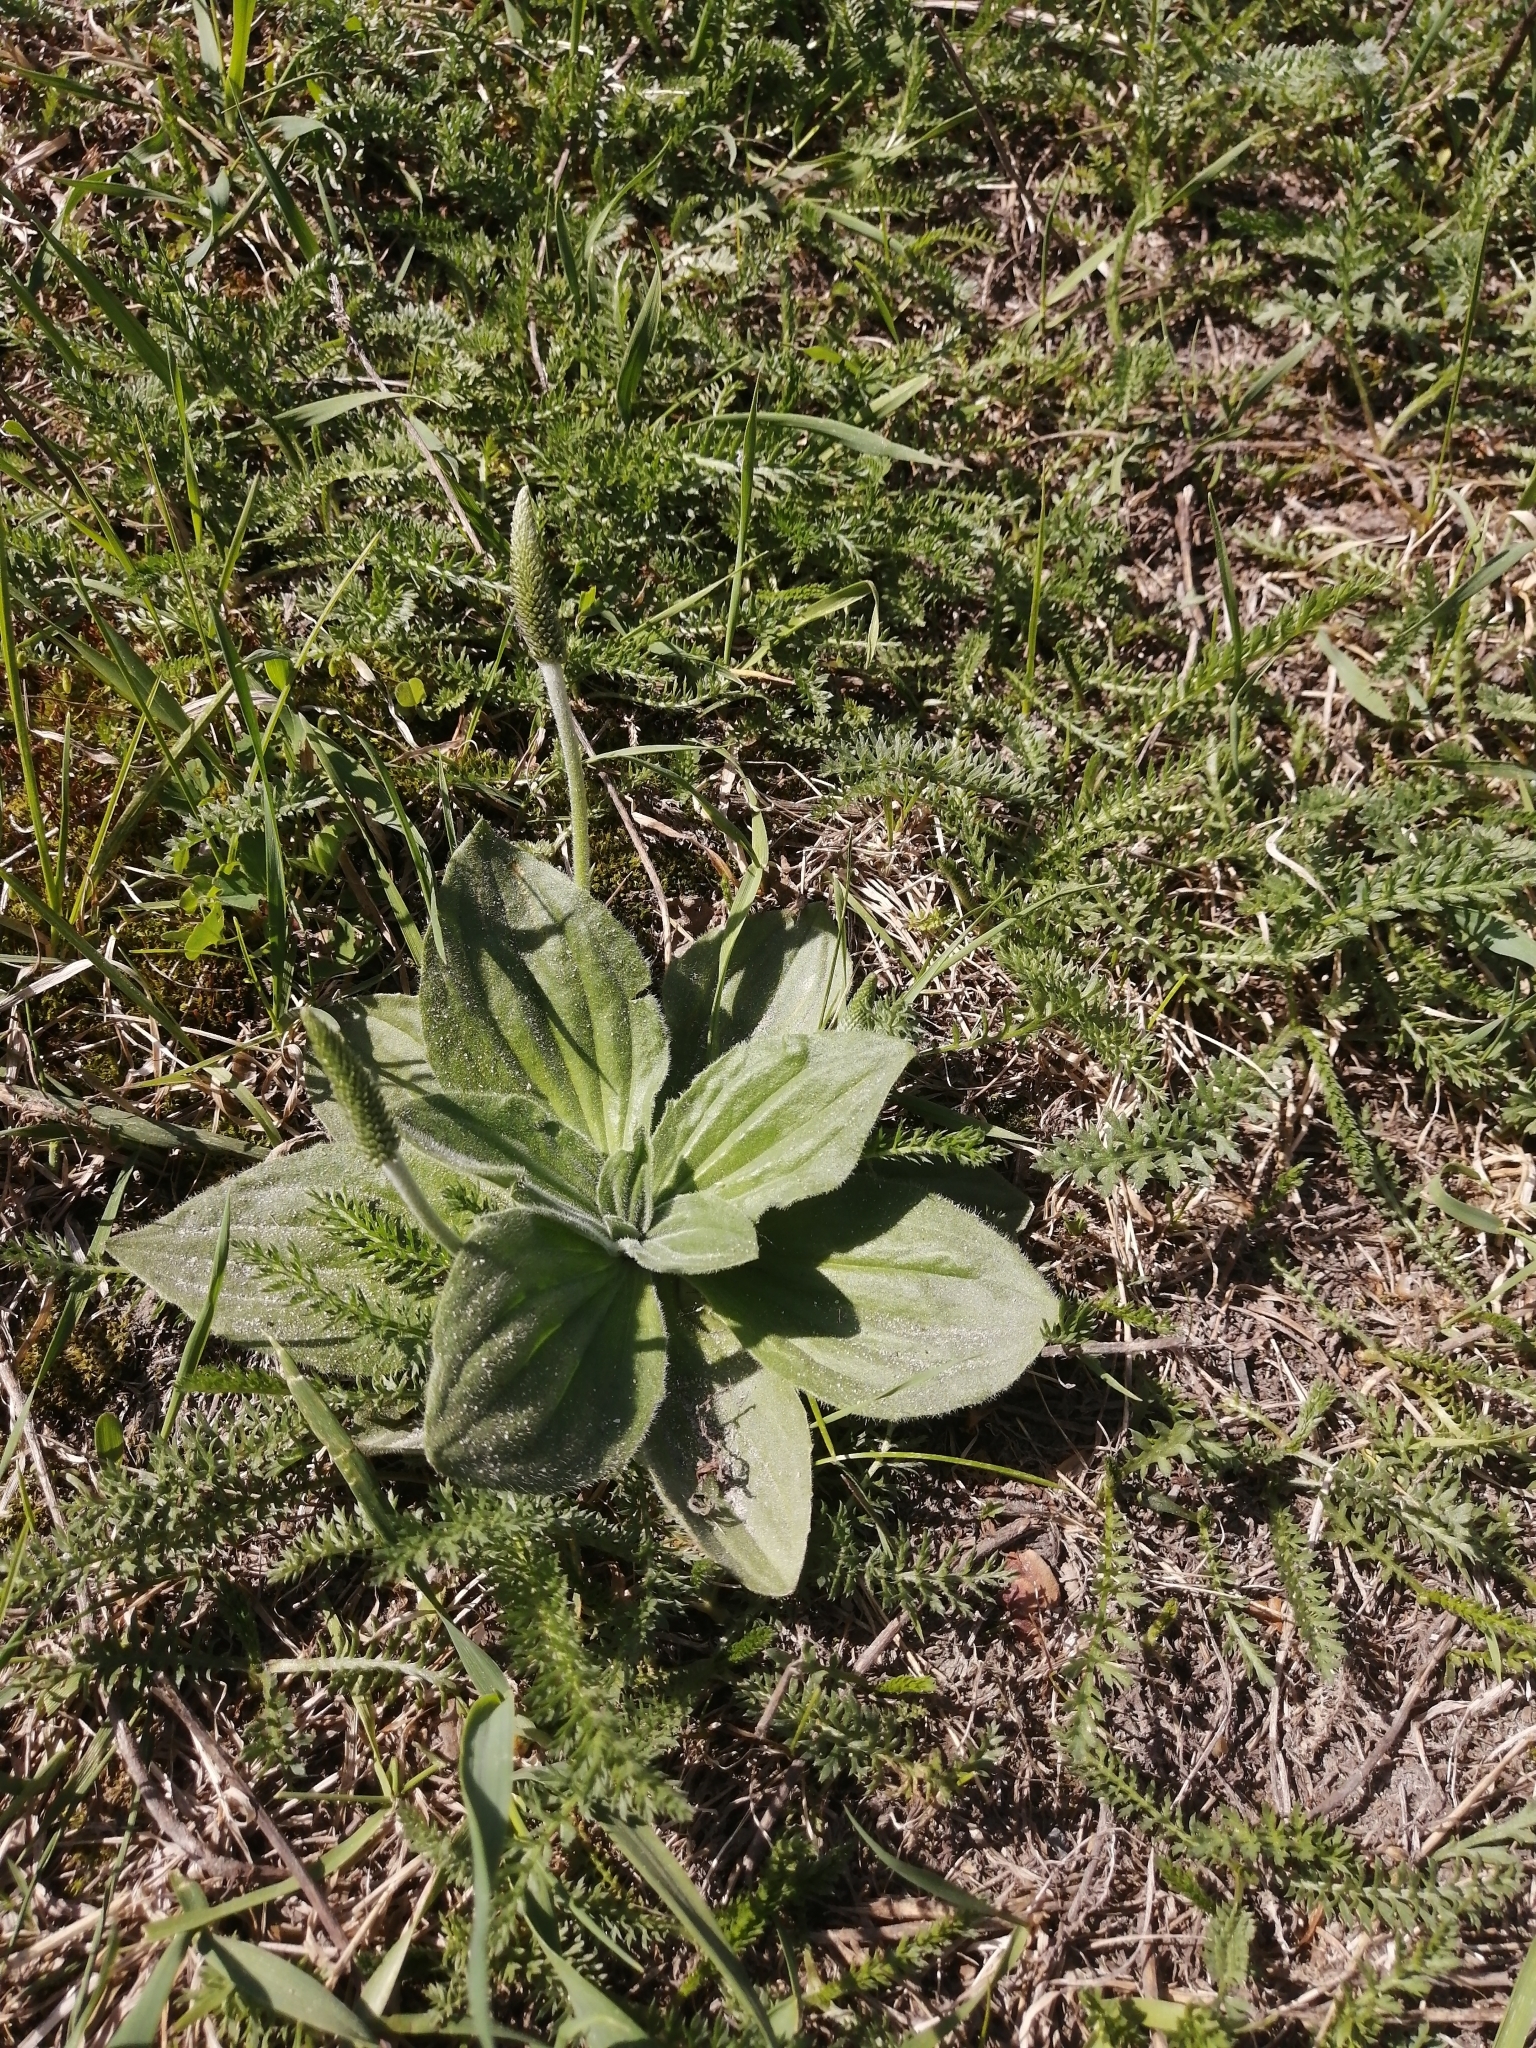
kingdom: Plantae
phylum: Tracheophyta
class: Magnoliopsida
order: Lamiales
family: Plantaginaceae
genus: Plantago
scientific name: Plantago media
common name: Hoary plantain
